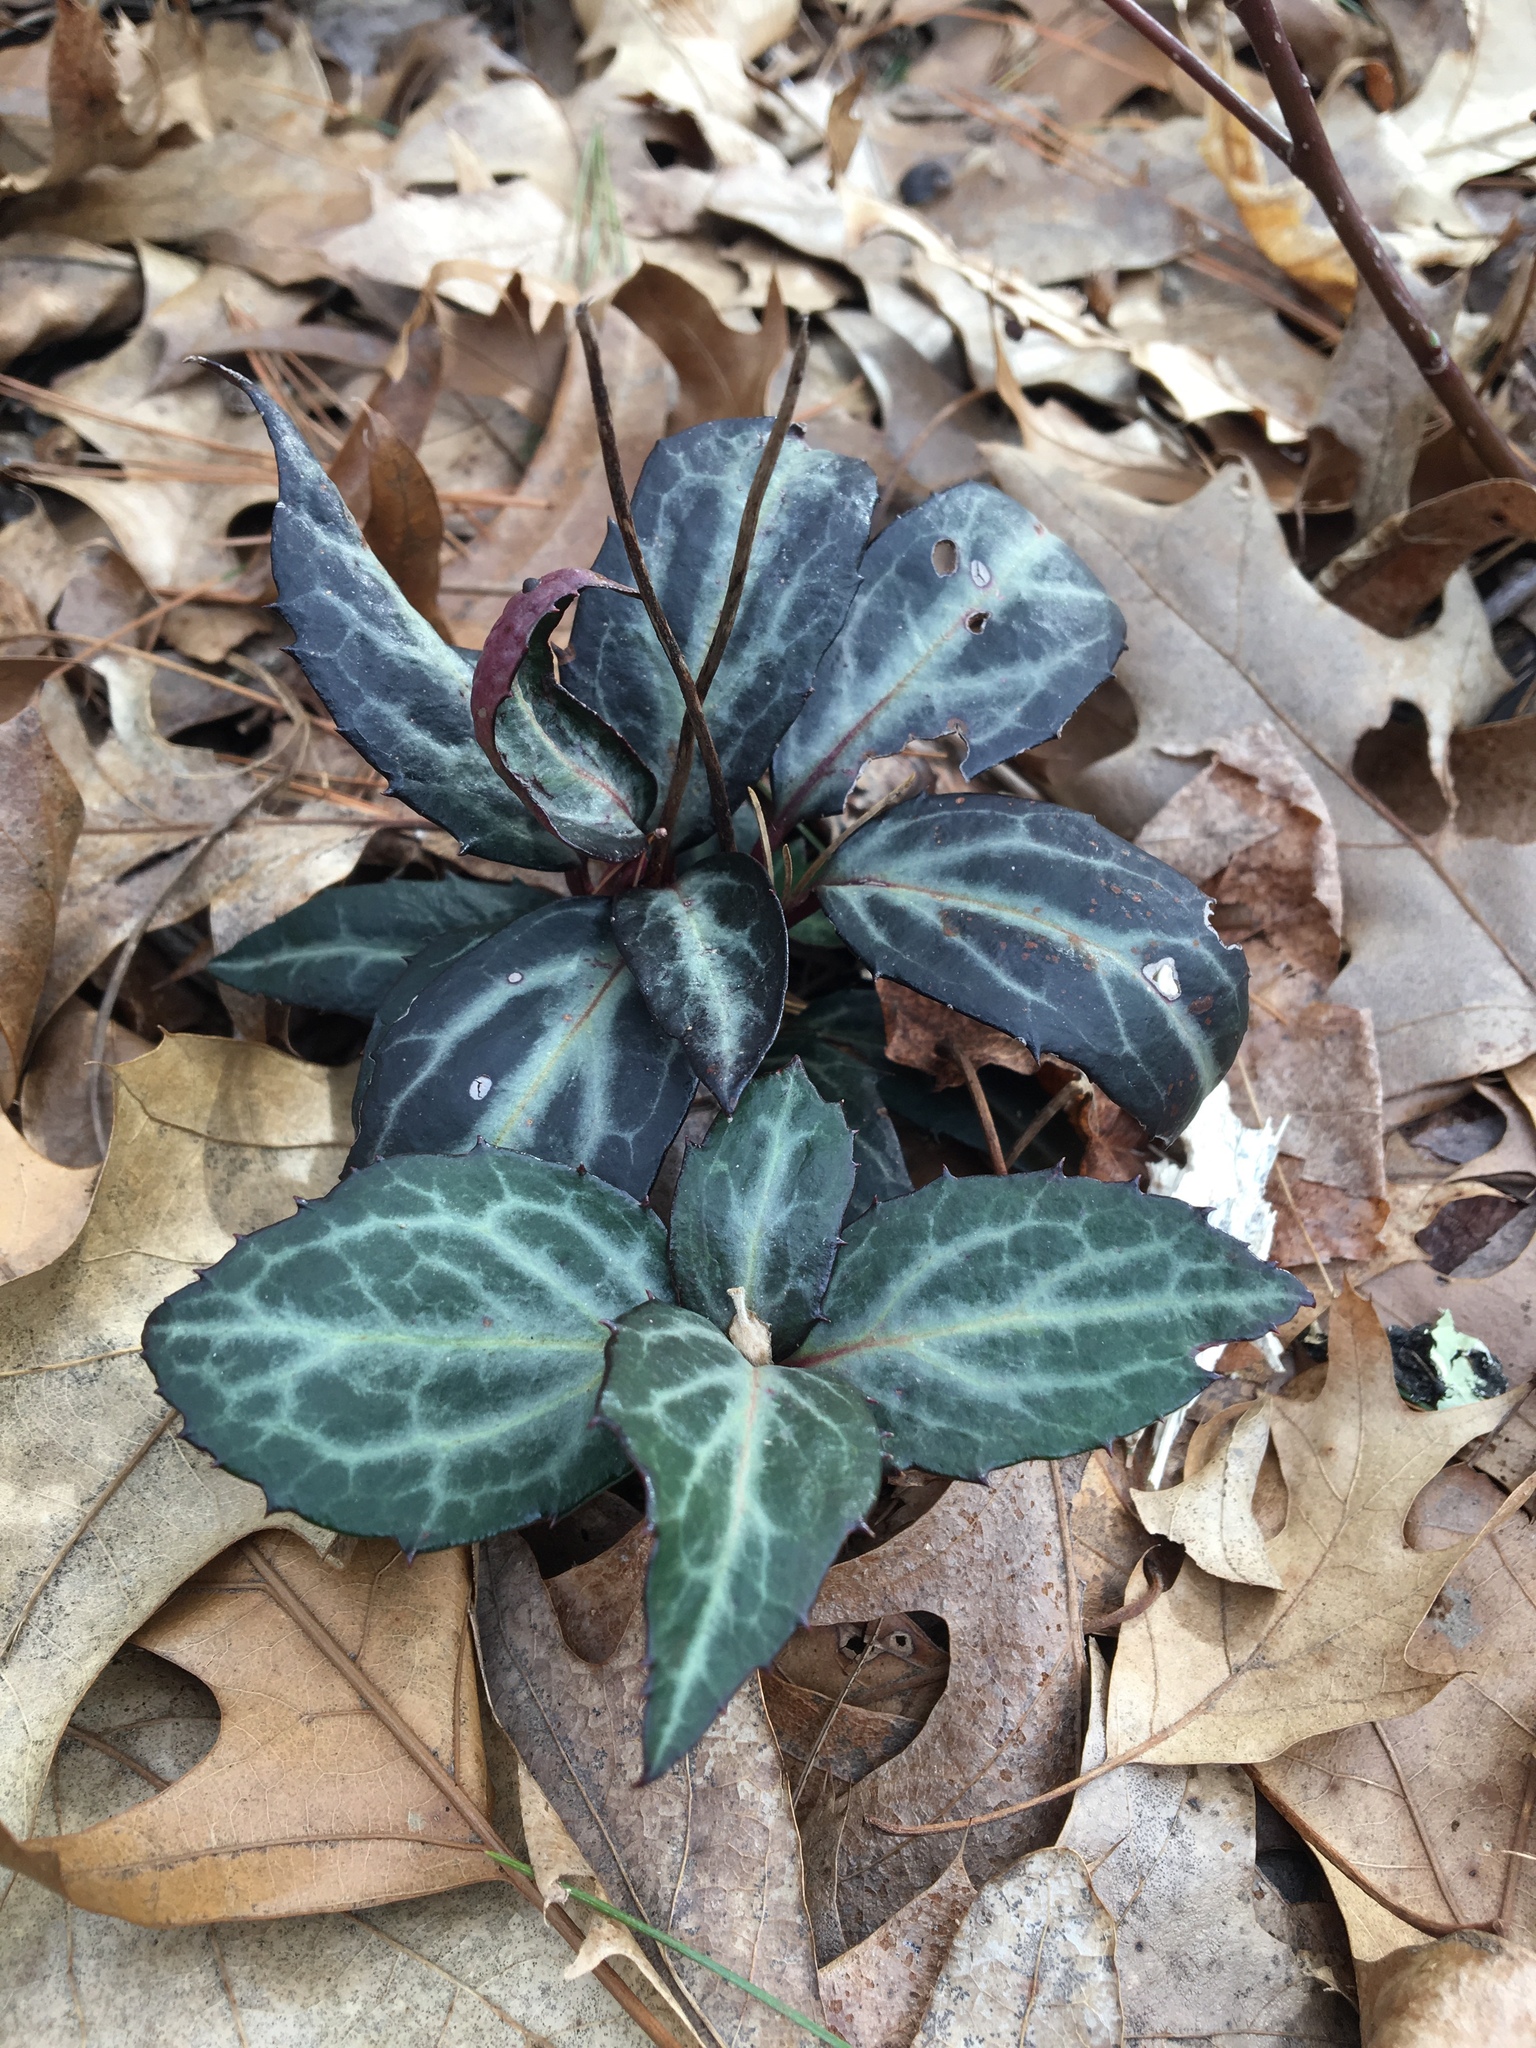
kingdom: Plantae
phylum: Tracheophyta
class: Magnoliopsida
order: Ericales
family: Ericaceae
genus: Chimaphila
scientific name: Chimaphila maculata
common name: Spotted pipsissewa
